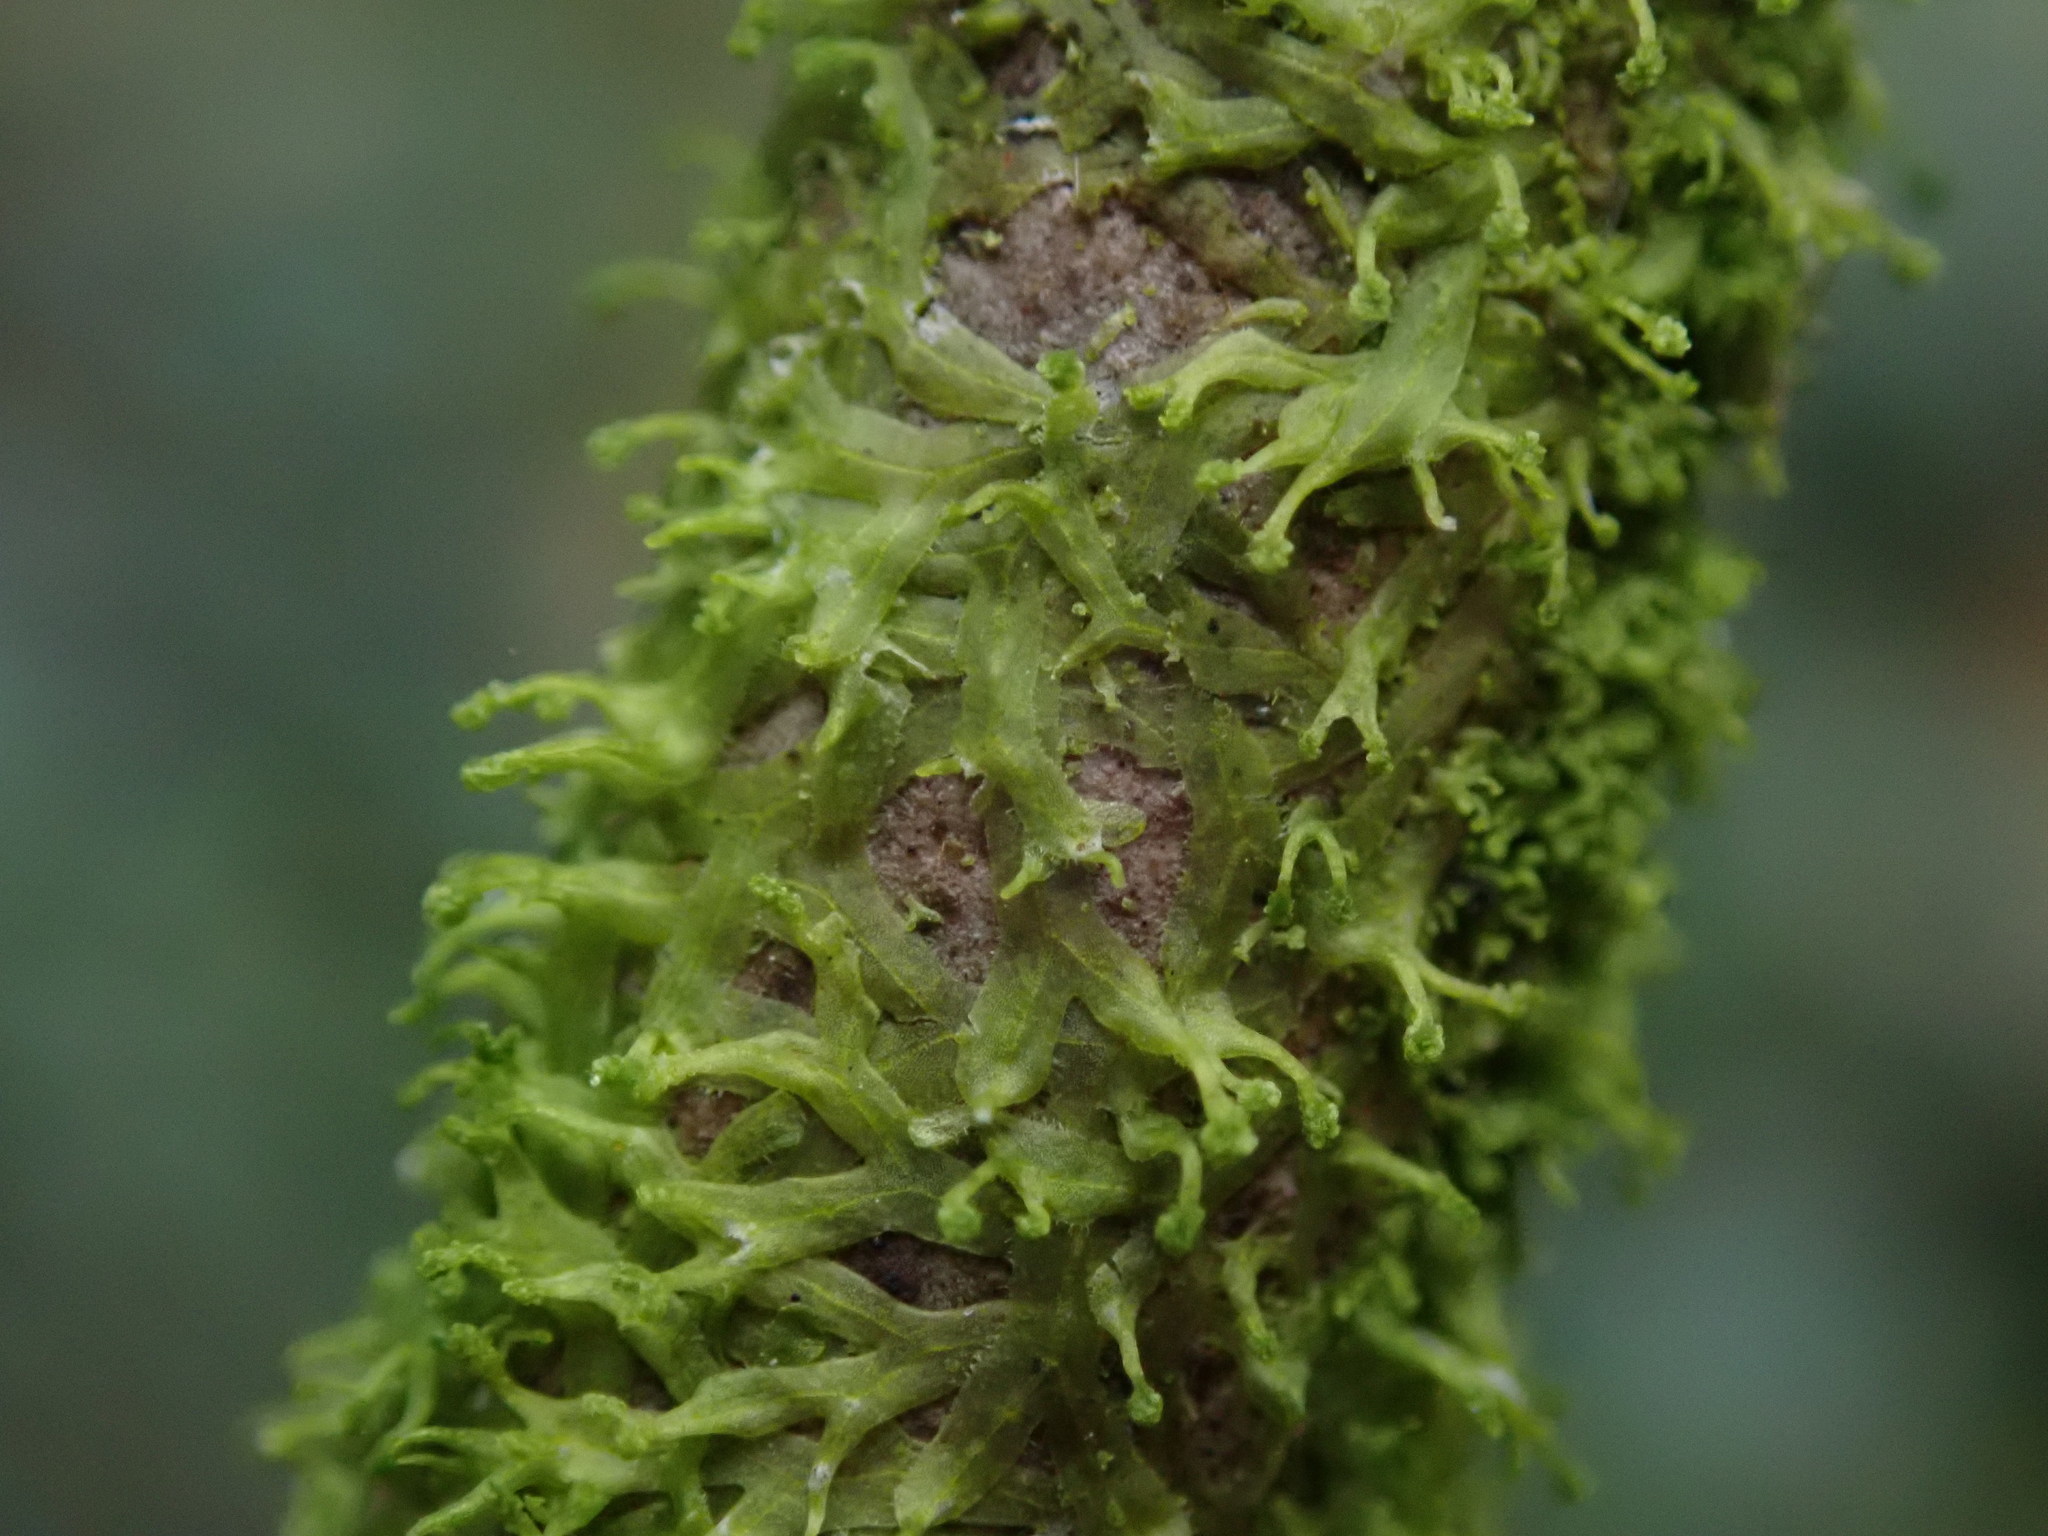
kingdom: Plantae
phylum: Marchantiophyta
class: Jungermanniopsida
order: Metzgeriales
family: Metzgeriaceae
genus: Metzgeria
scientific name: Metzgeria violacea
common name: Blueish veilwort
